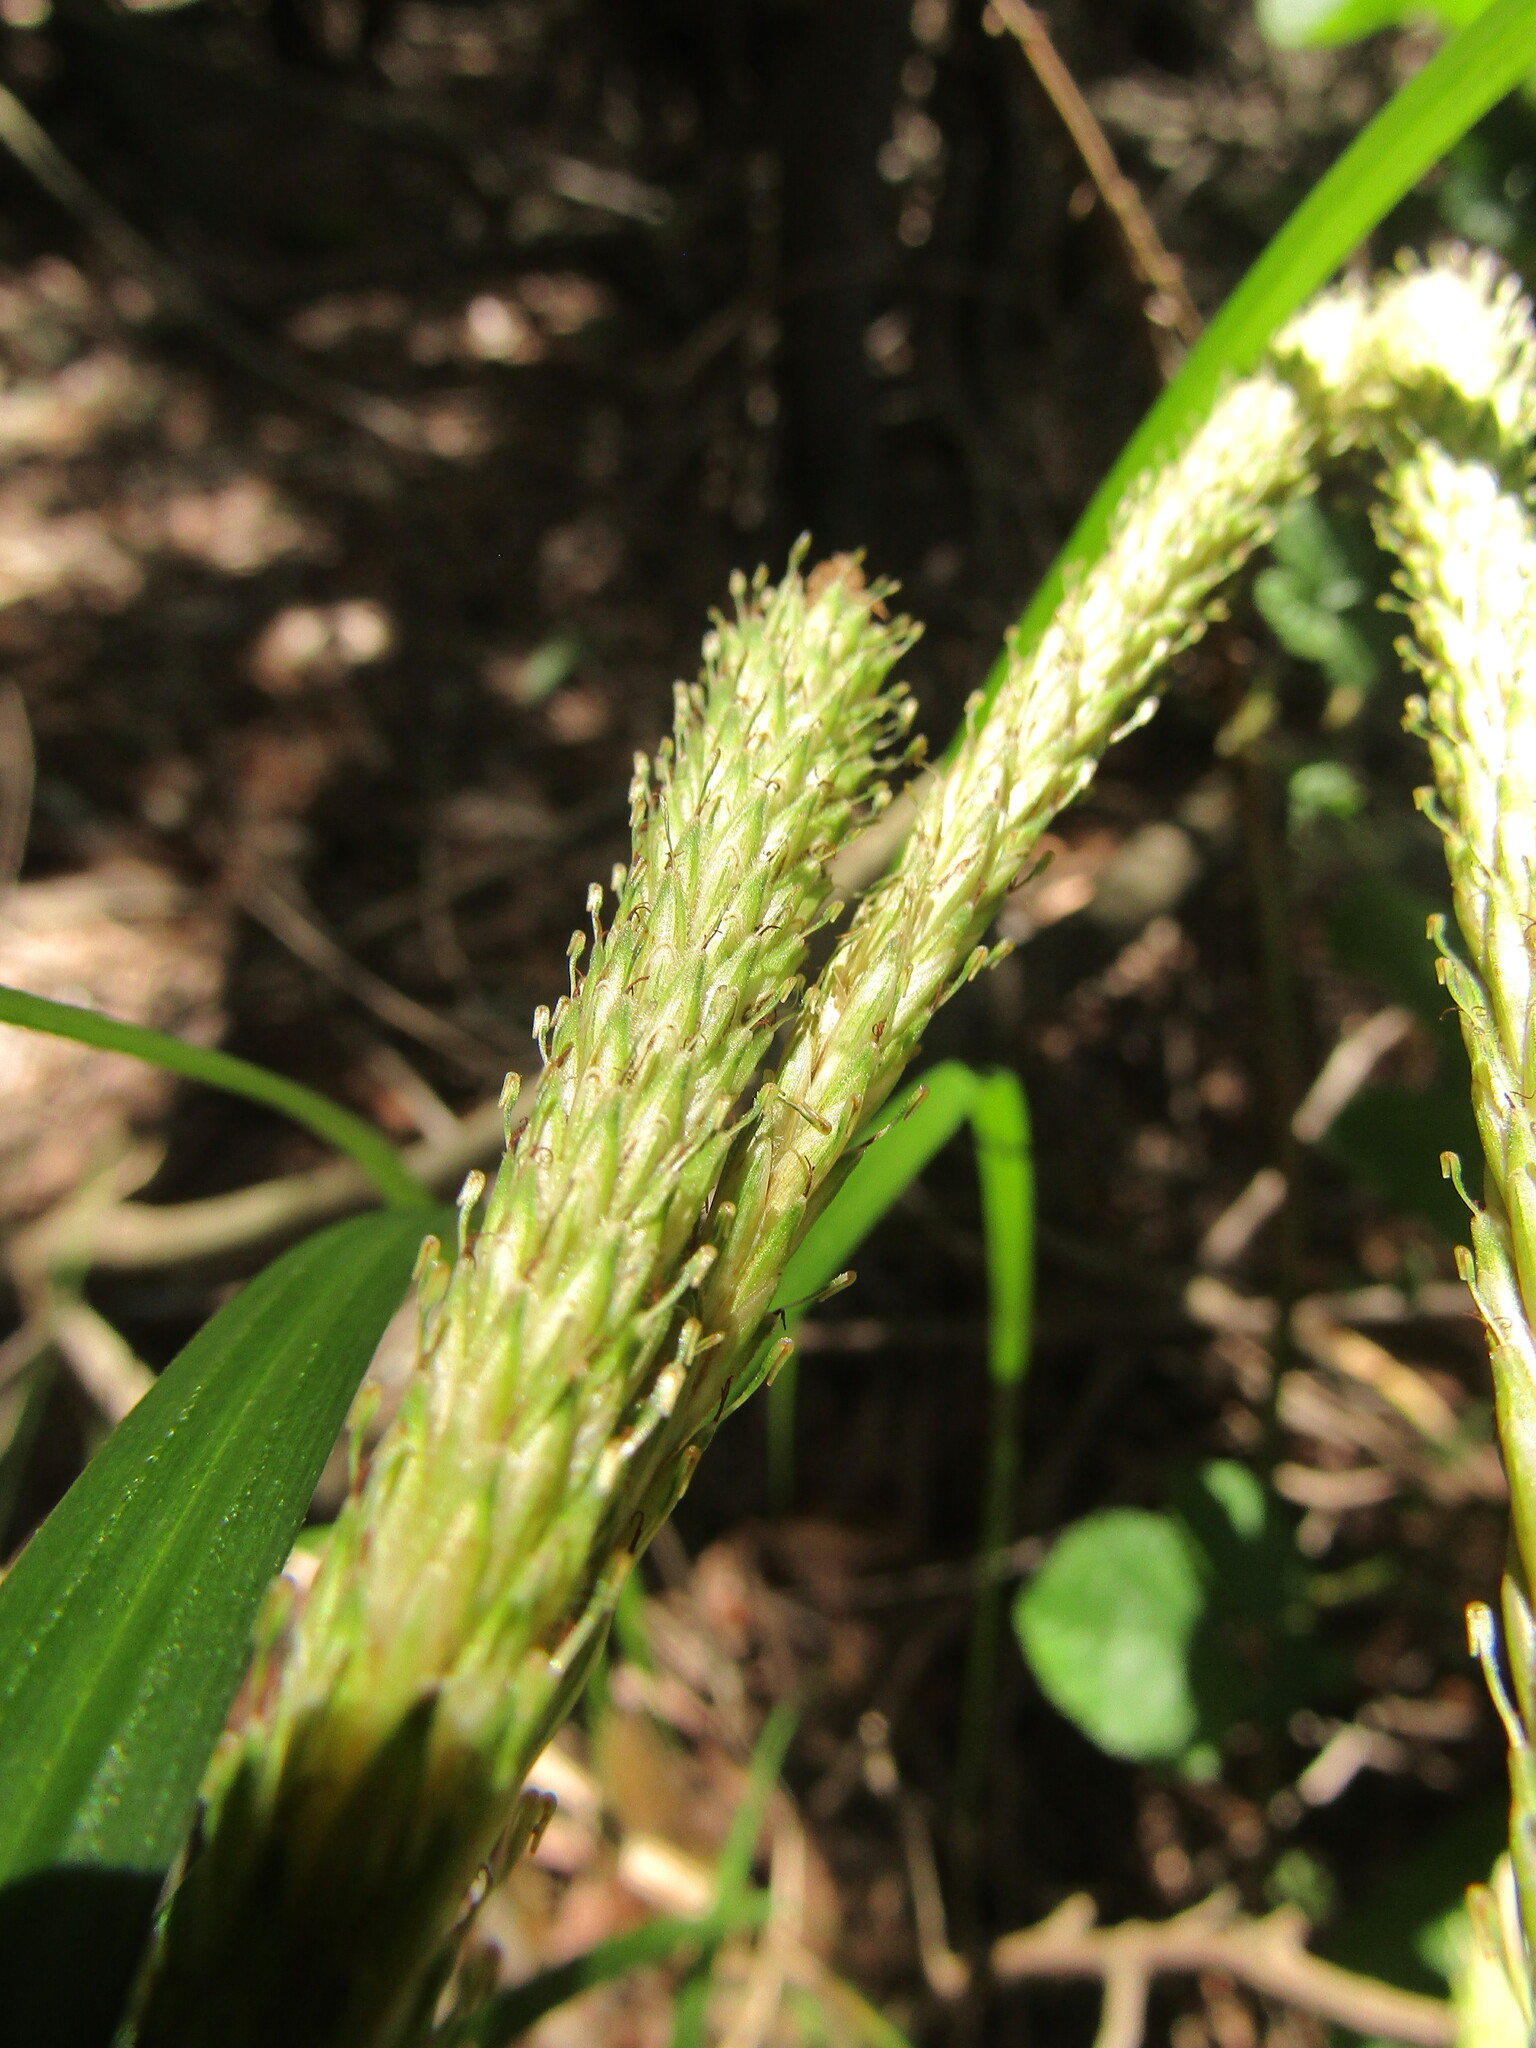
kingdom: Plantae
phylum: Tracheophyta
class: Liliopsida
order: Poales
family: Cyperaceae
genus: Carex
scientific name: Carex phleoides
